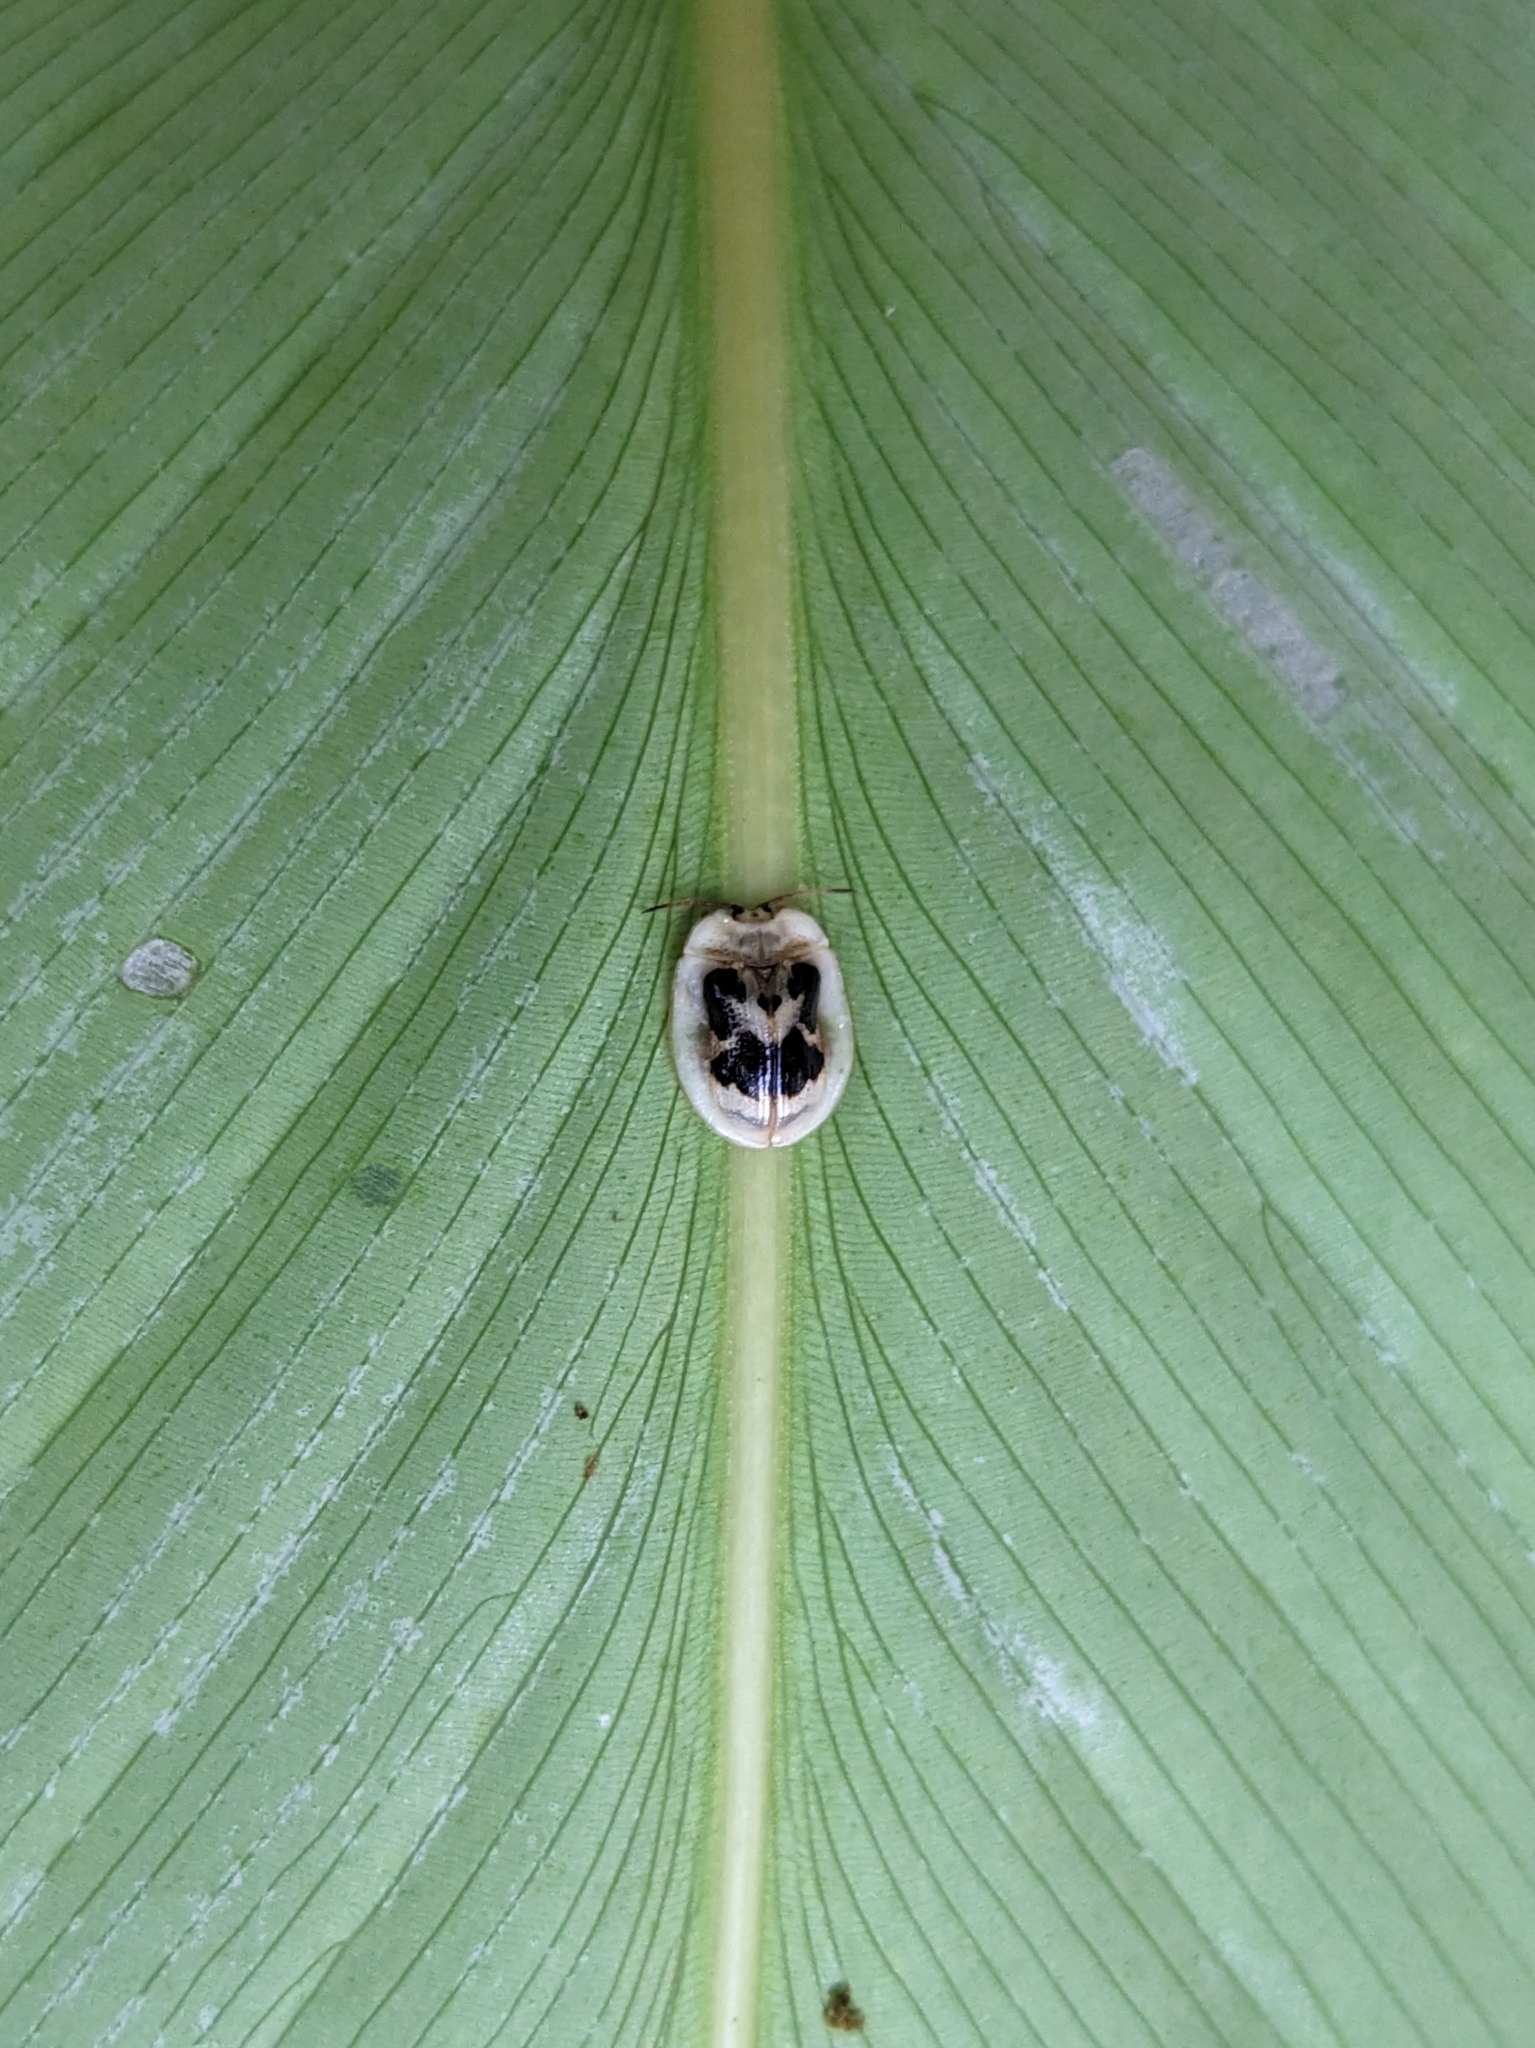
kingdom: Animalia
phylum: Arthropoda
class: Insecta
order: Coleoptera
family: Chrysomelidae
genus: Aslamidium
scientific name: Aslamidium impurum
